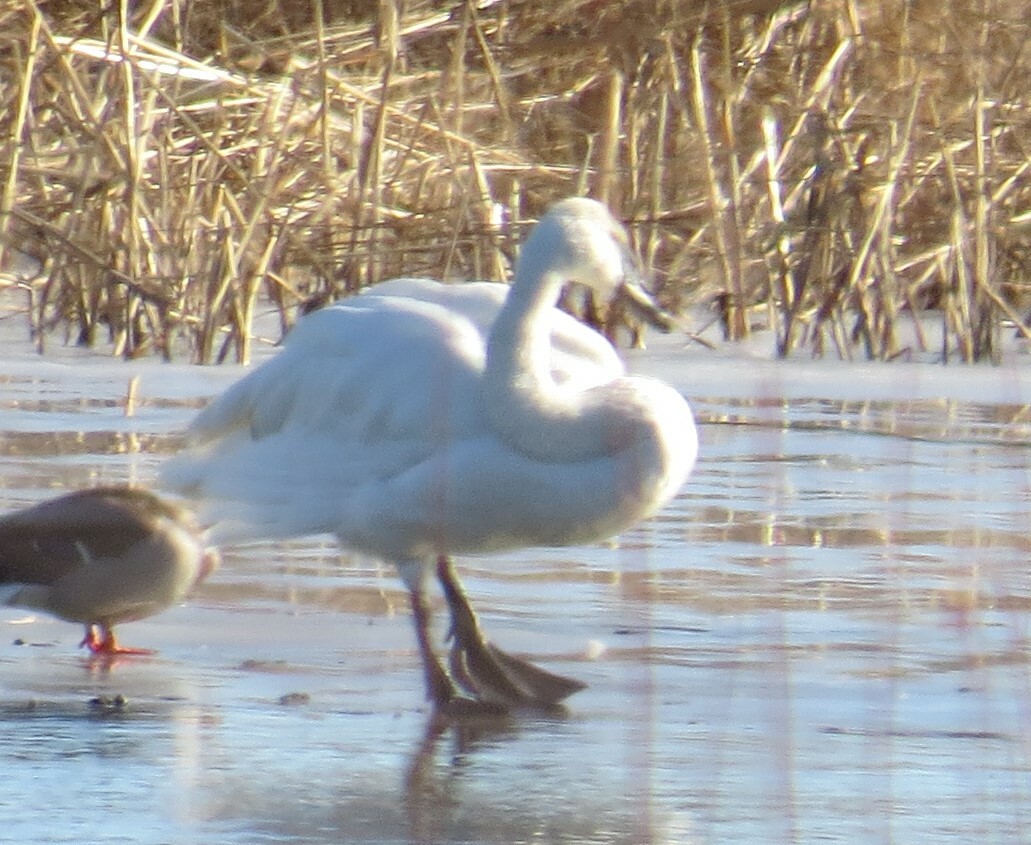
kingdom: Animalia
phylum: Chordata
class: Aves
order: Anseriformes
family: Anatidae
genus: Cygnus
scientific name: Cygnus buccinator
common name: Trumpeter swan
